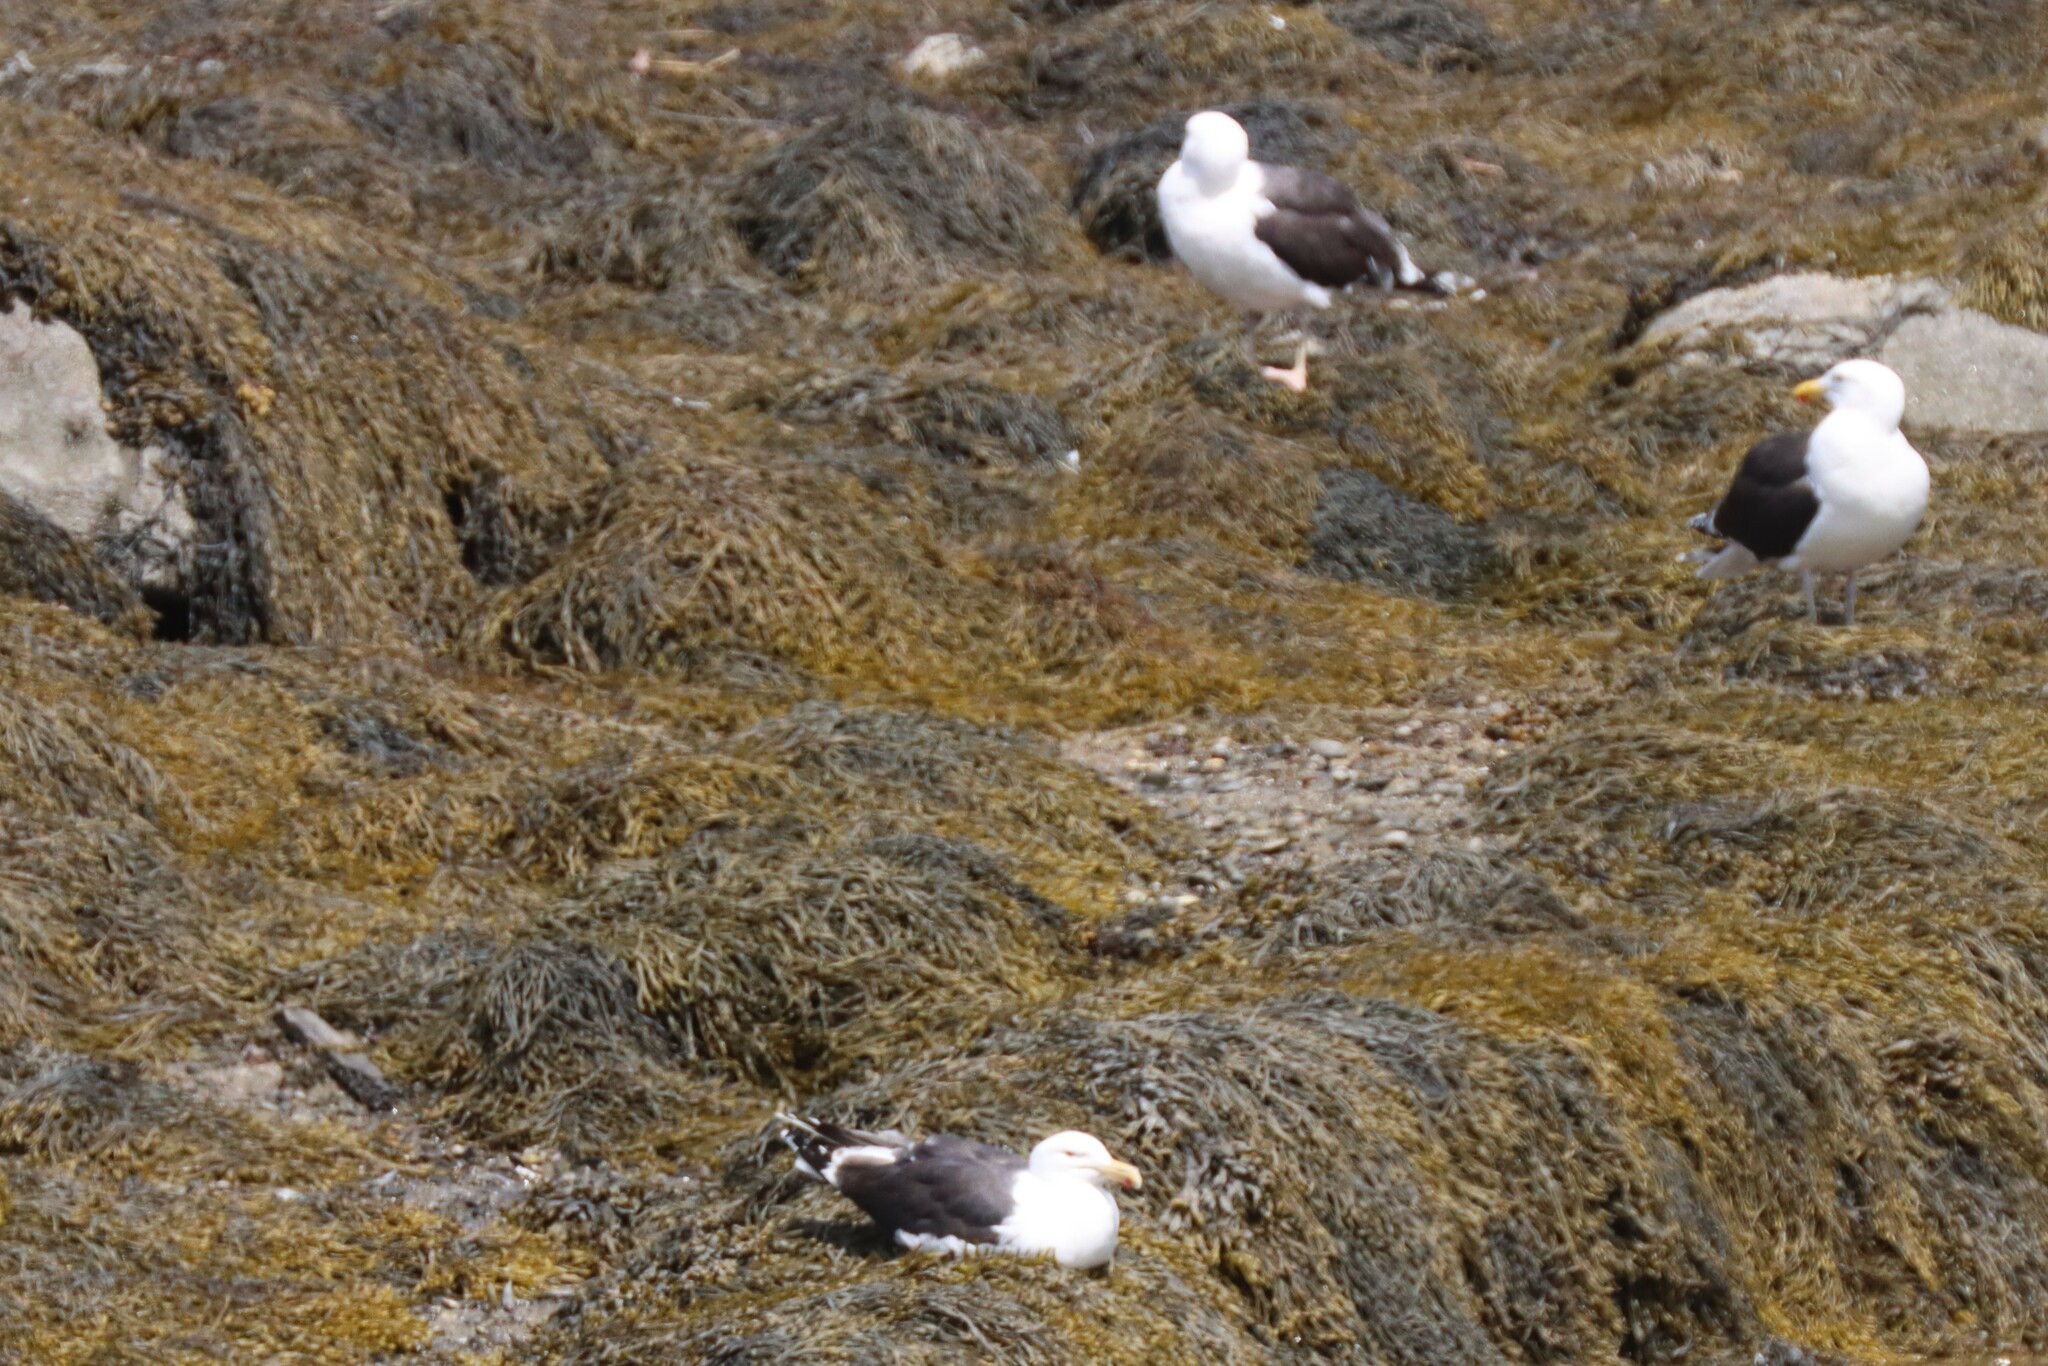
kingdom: Animalia
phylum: Chordata
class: Aves
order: Charadriiformes
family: Laridae
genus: Larus
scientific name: Larus marinus
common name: Great black-backed gull
